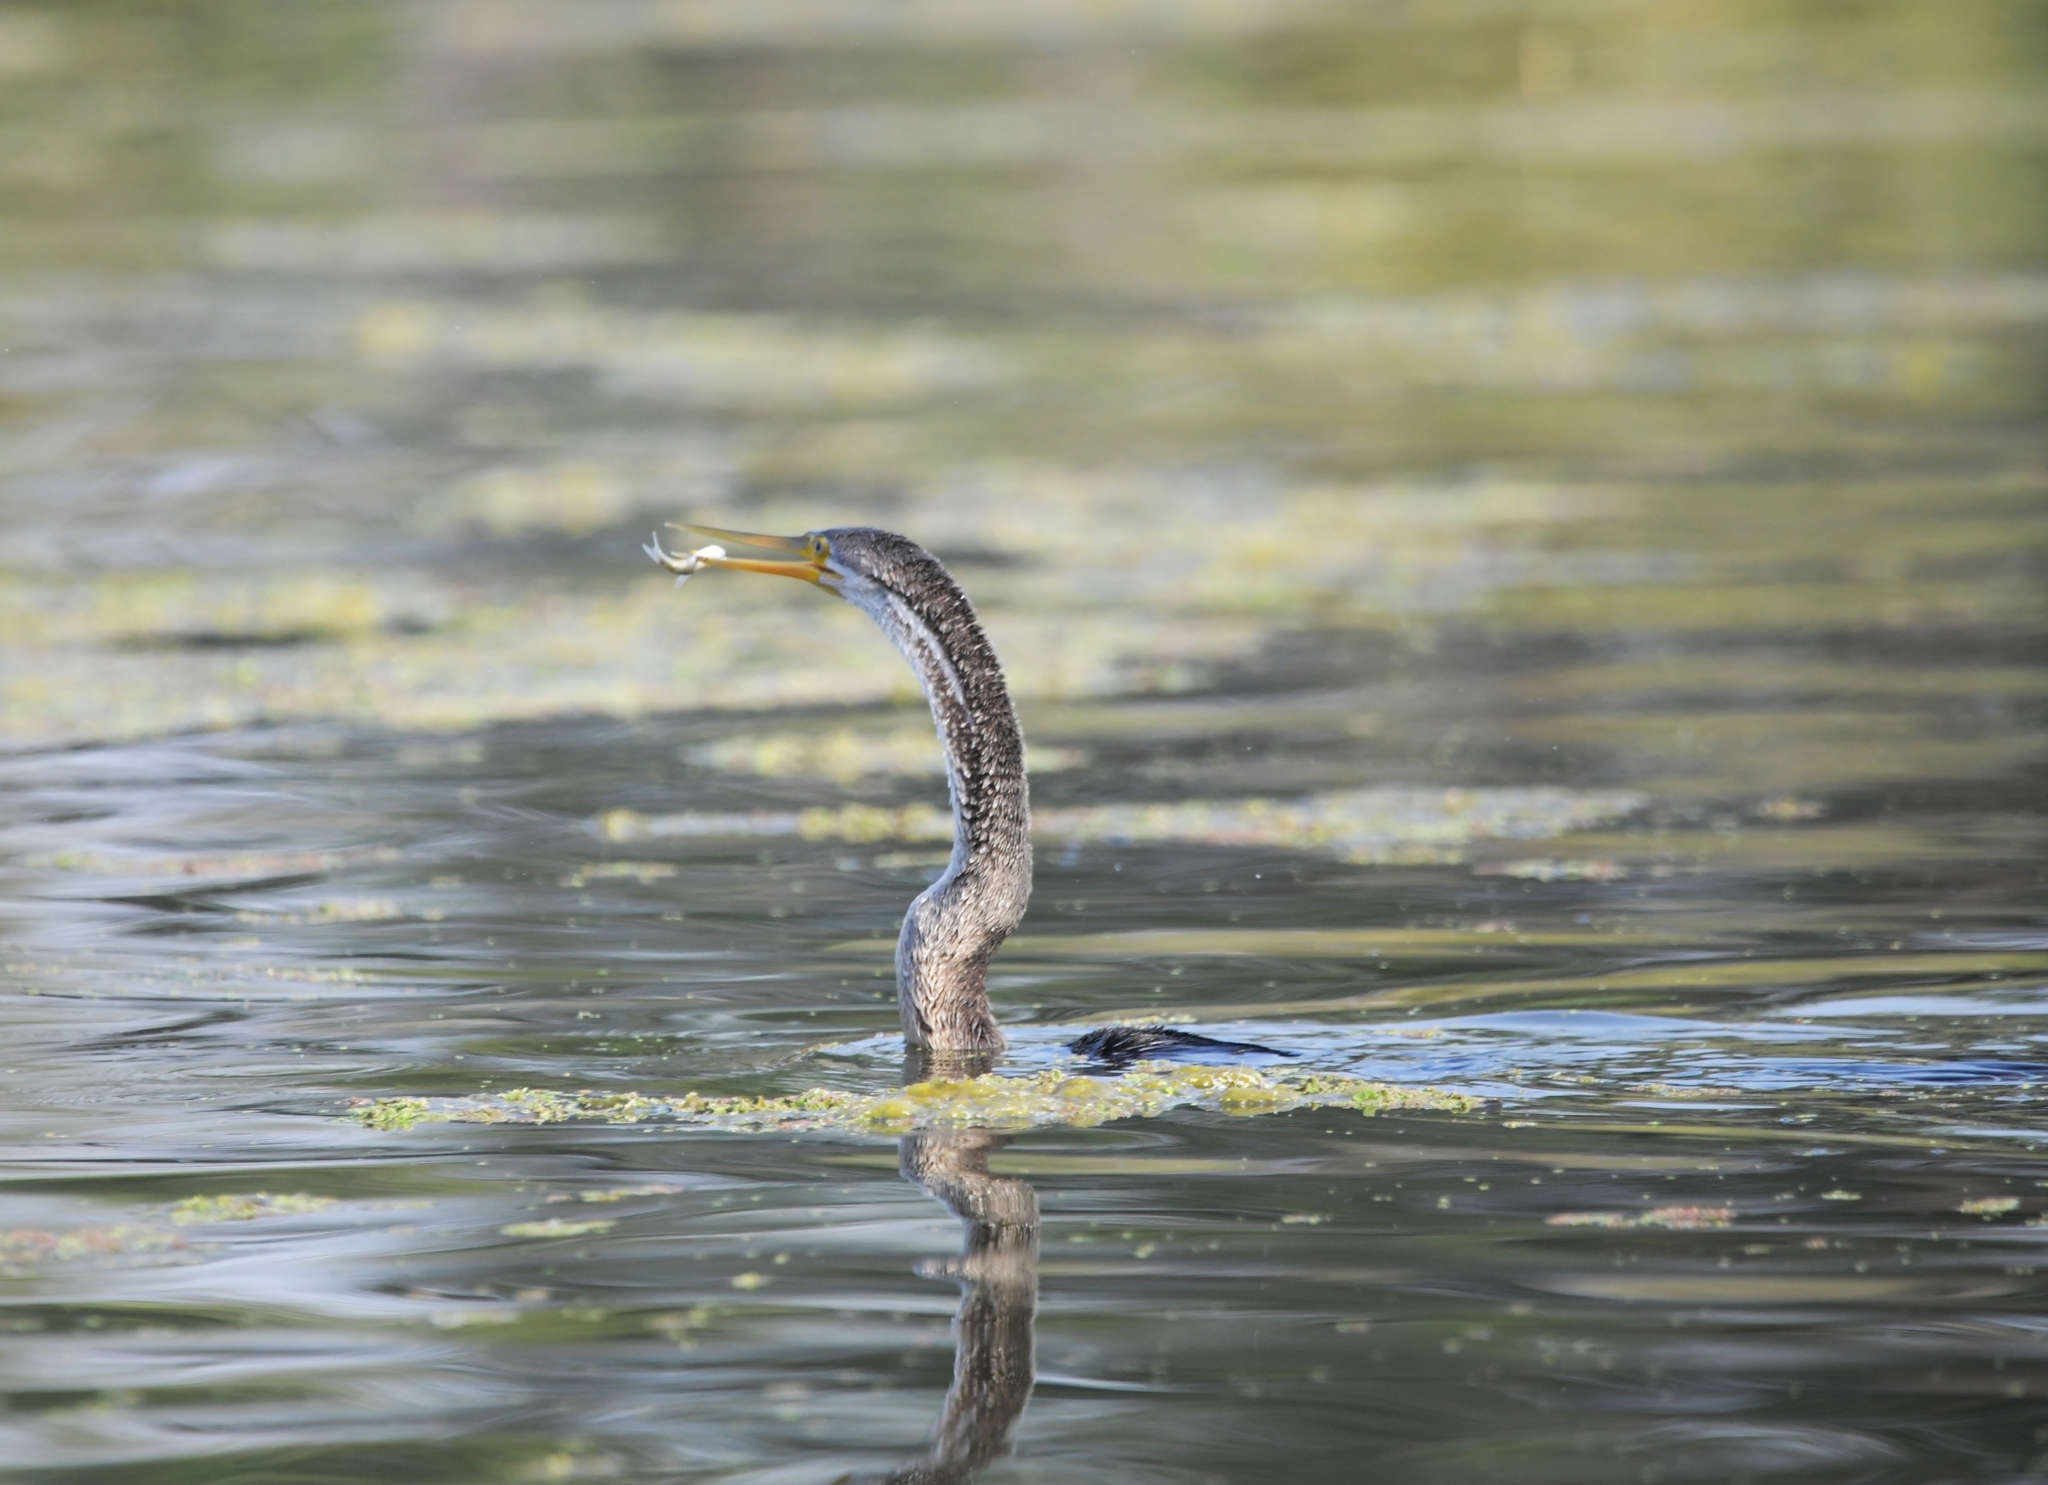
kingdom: Animalia
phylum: Chordata
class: Aves
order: Suliformes
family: Anhingidae
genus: Anhinga
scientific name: Anhinga melanogaster
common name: Oriental darter
